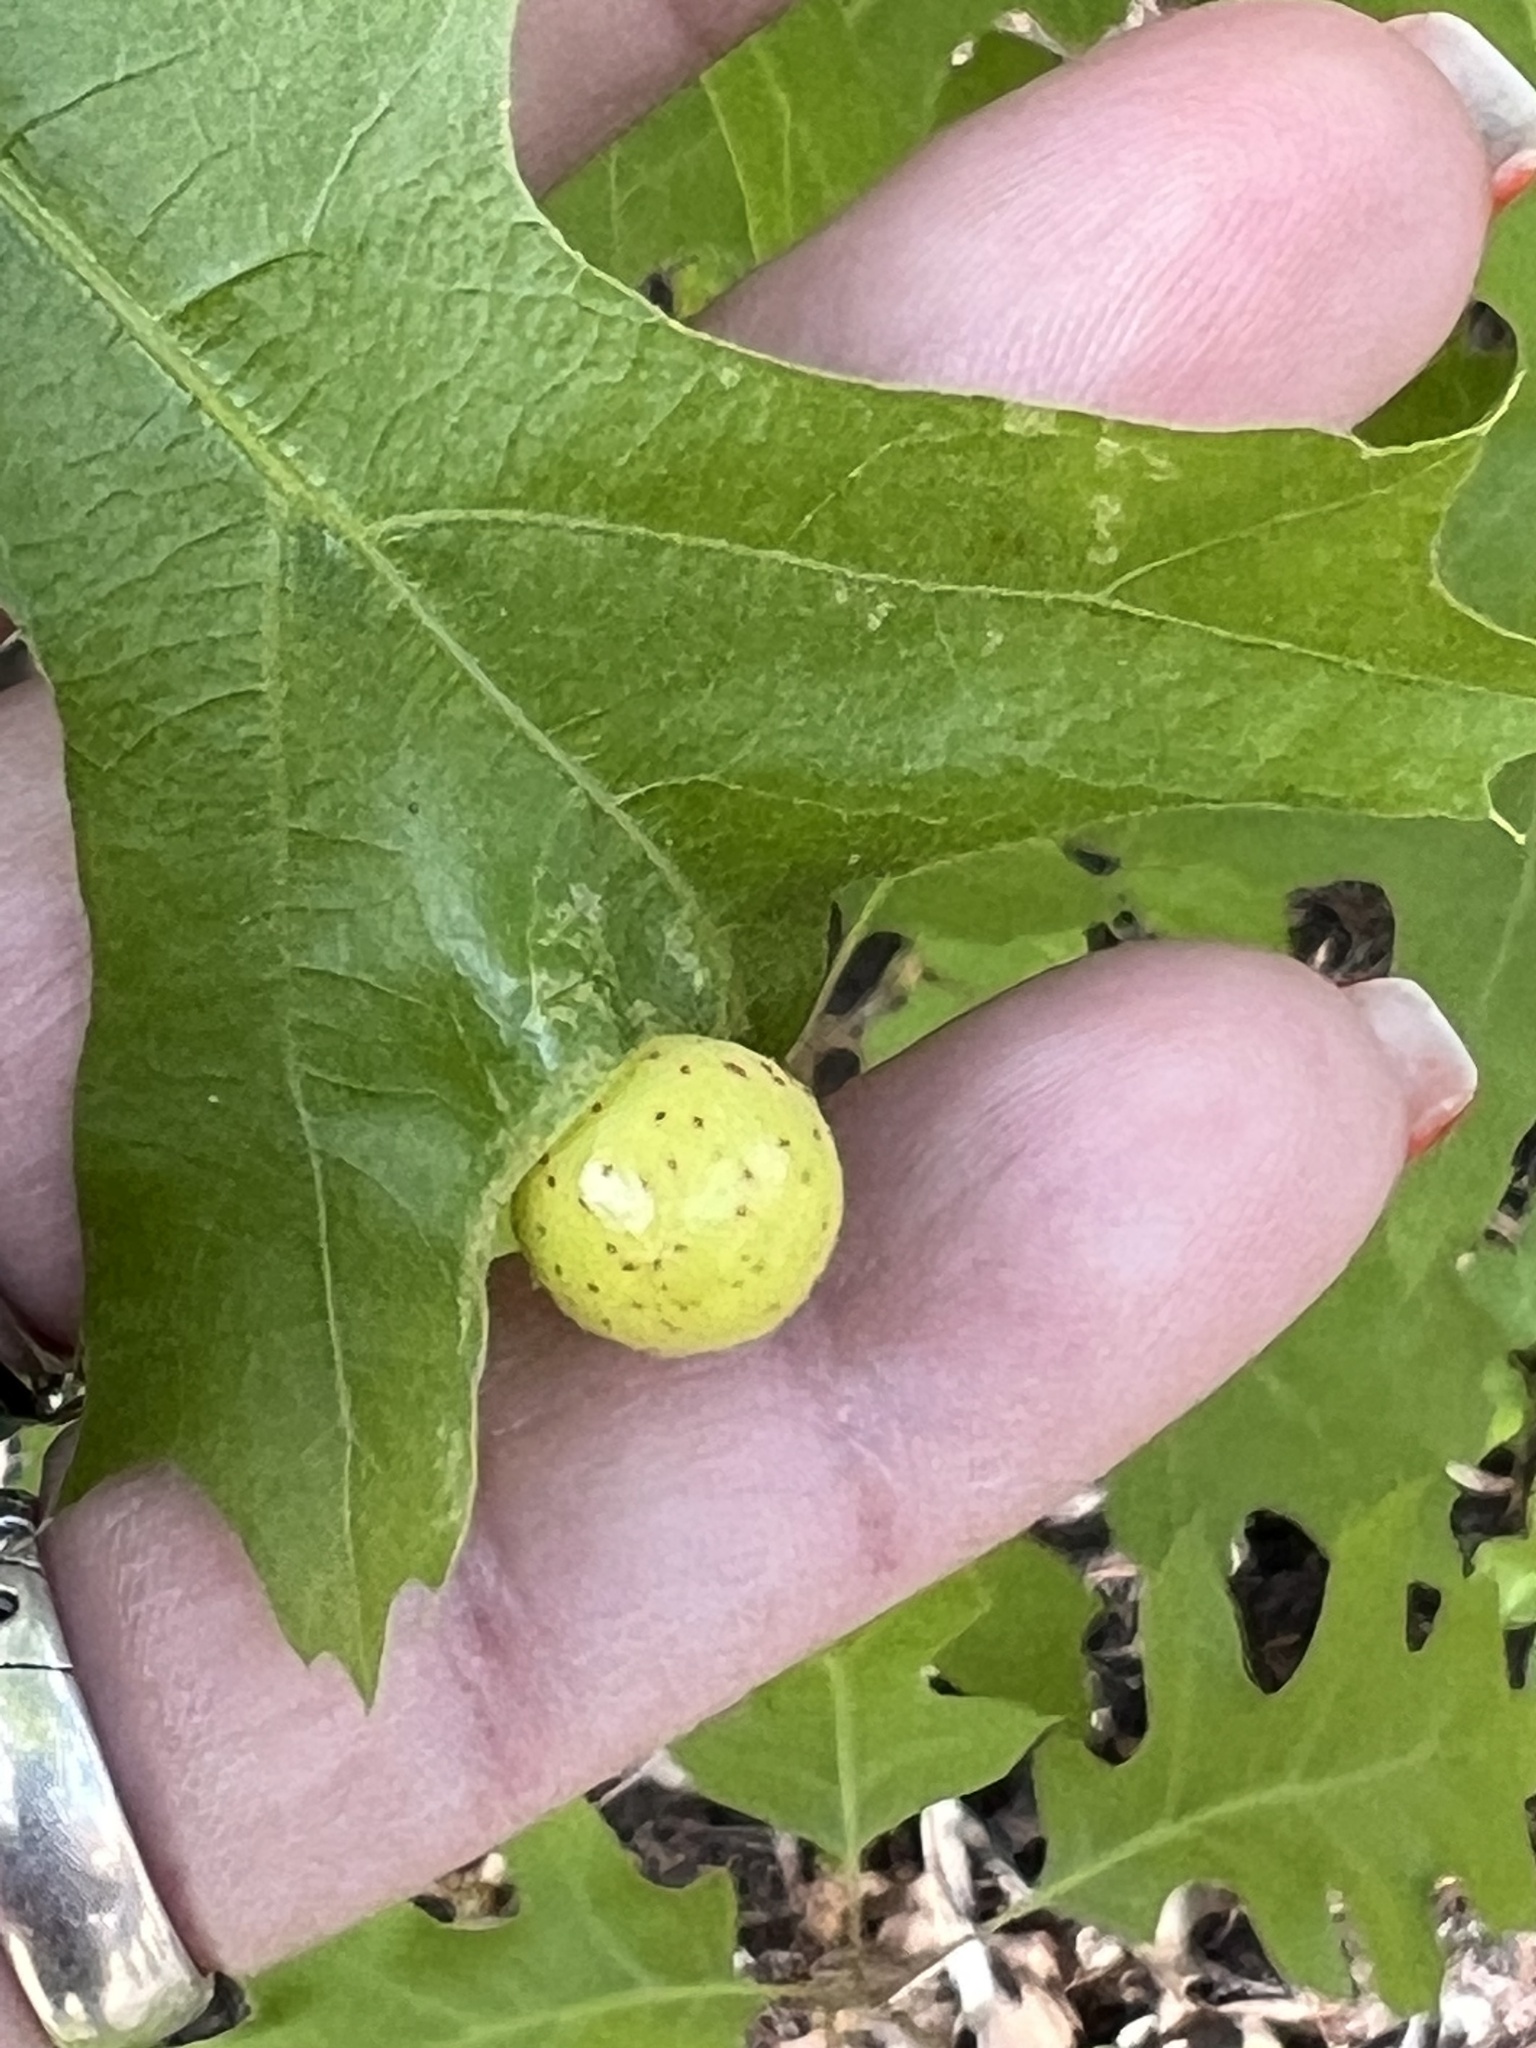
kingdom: Animalia
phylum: Arthropoda
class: Insecta
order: Hymenoptera
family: Cynipidae
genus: Amphibolips
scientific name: Amphibolips
